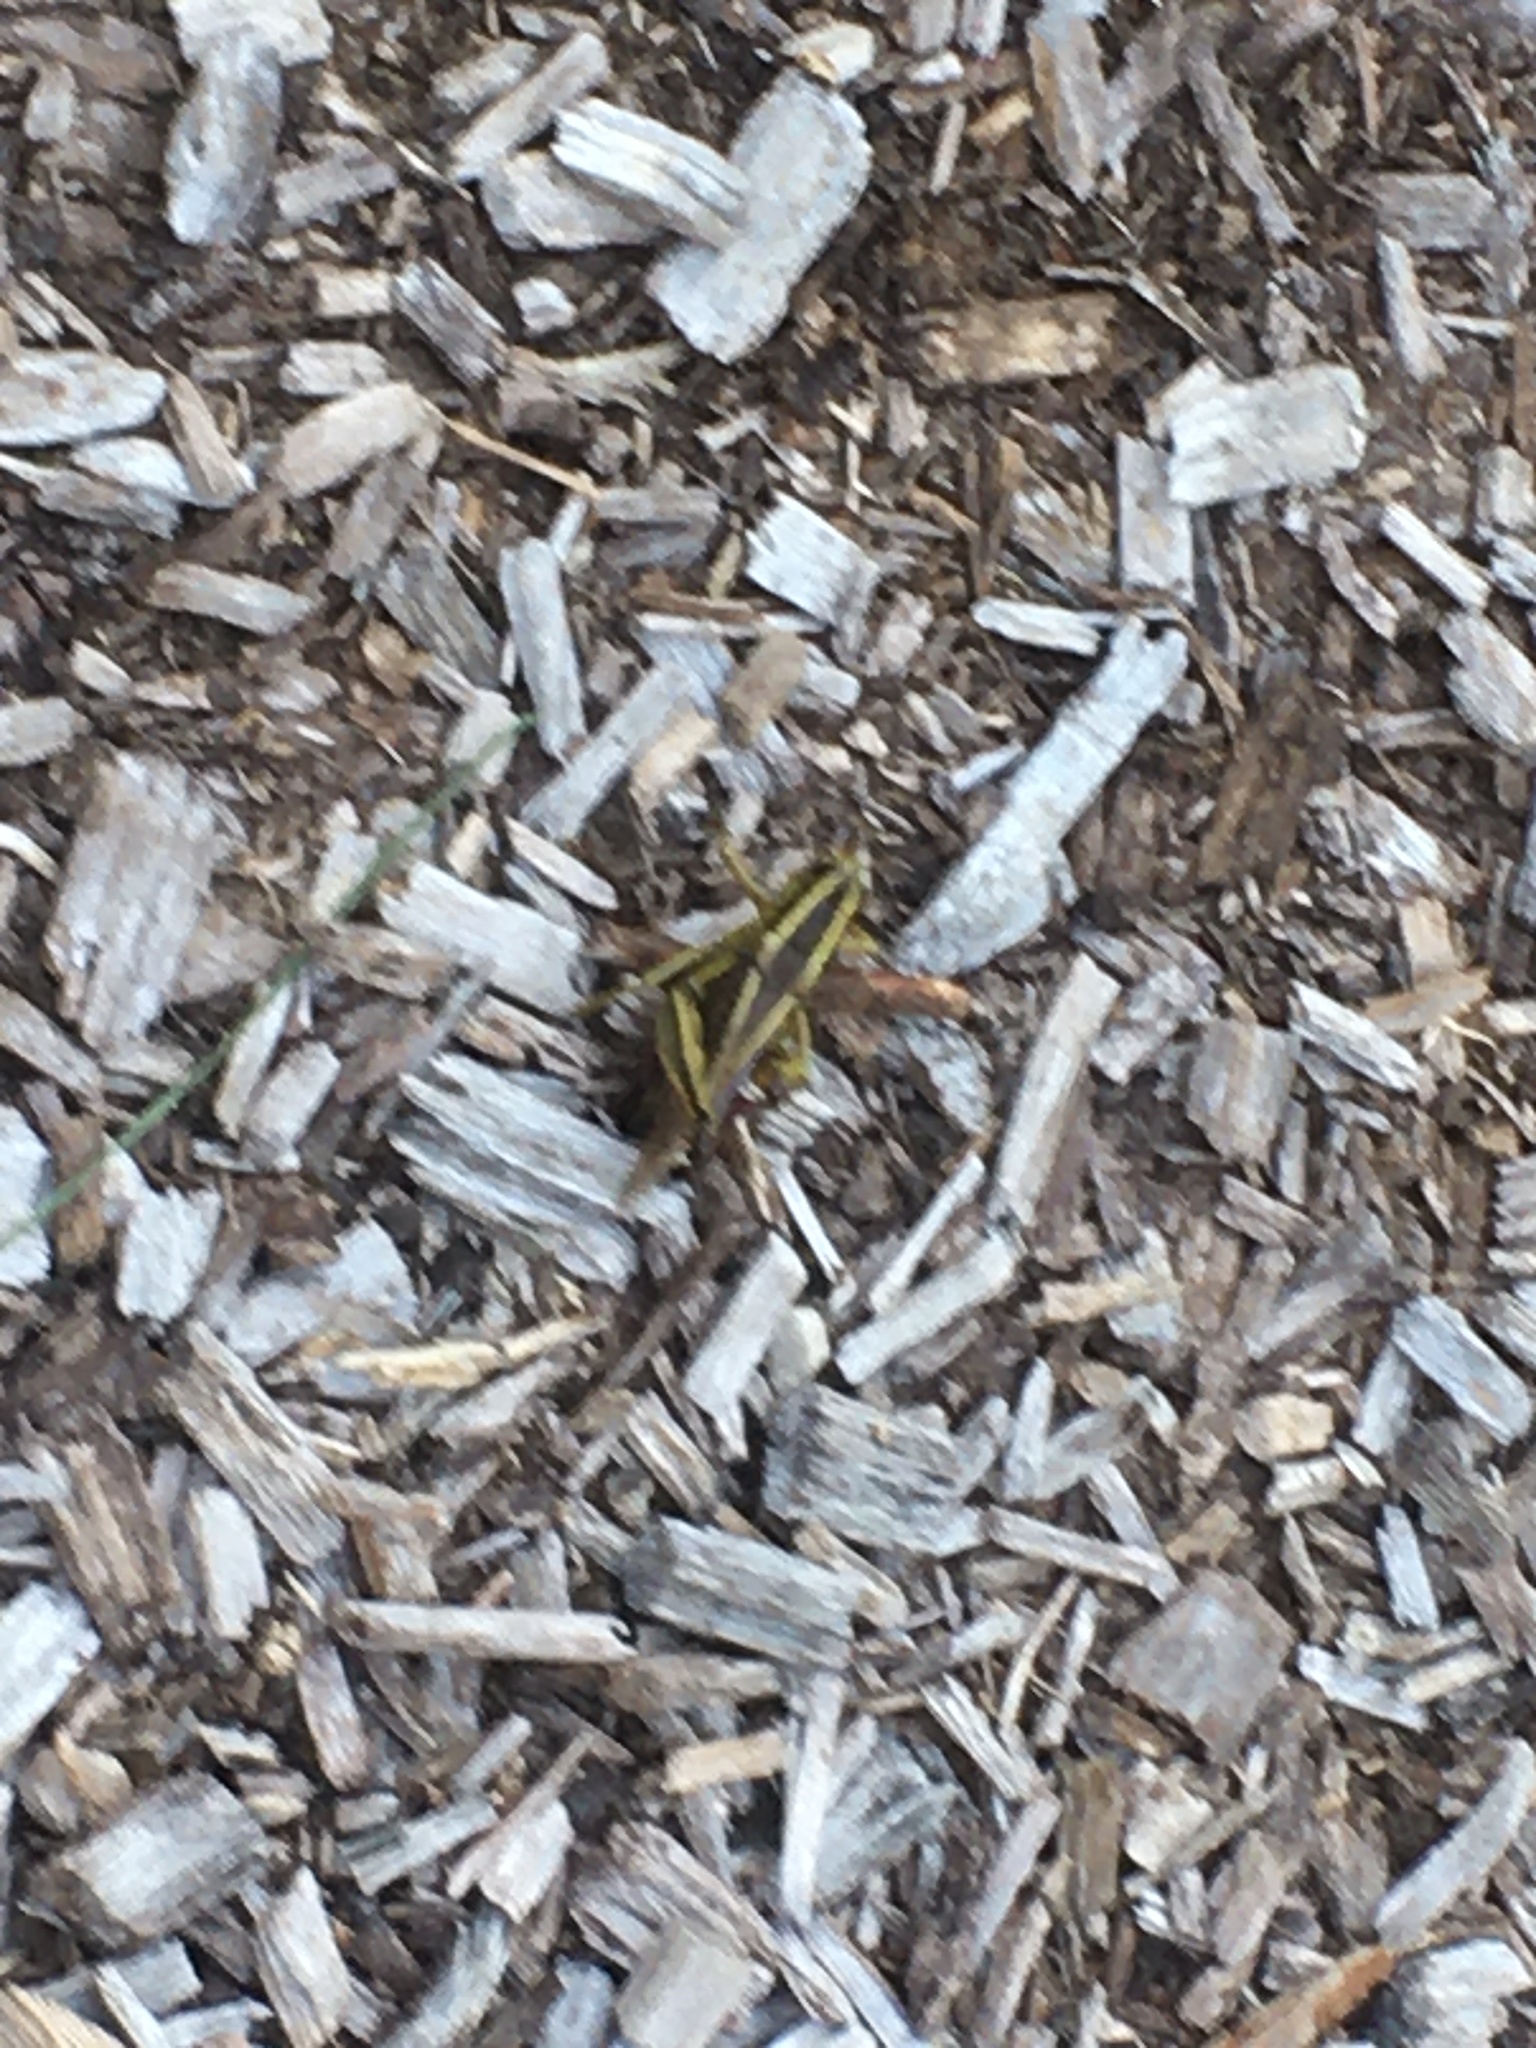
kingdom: Animalia
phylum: Arthropoda
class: Insecta
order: Orthoptera
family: Acrididae
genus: Melanoplus
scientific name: Melanoplus bivittatus
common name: Two-striped grasshopper
